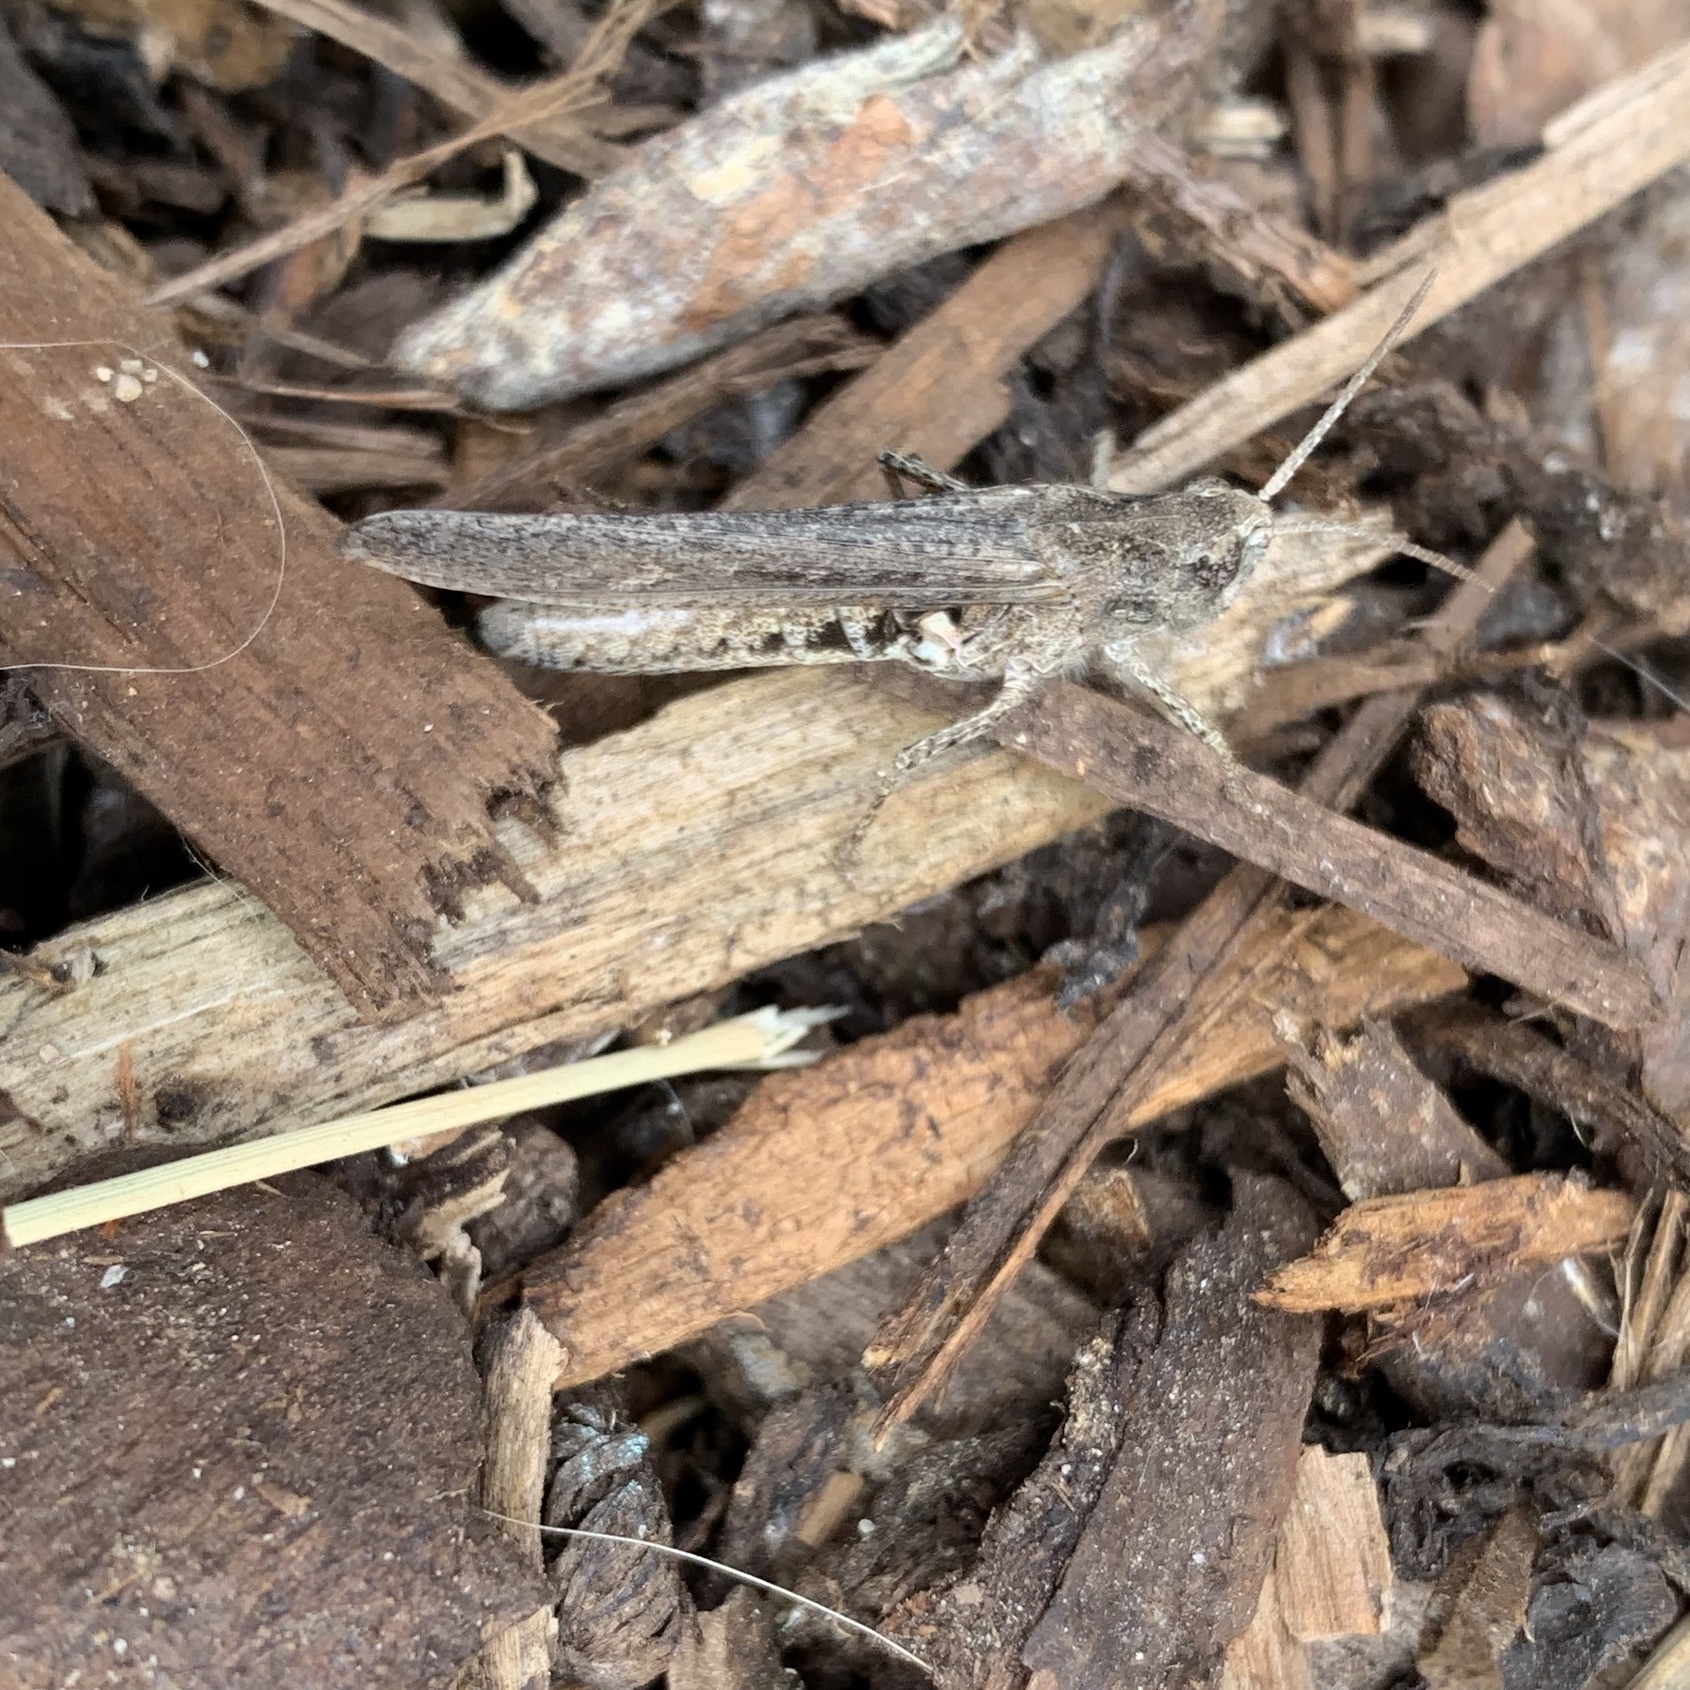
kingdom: Animalia
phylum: Arthropoda
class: Insecta
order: Orthoptera
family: Acrididae
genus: Chorthippus
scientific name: Chorthippus brunneus
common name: Field grasshopper
